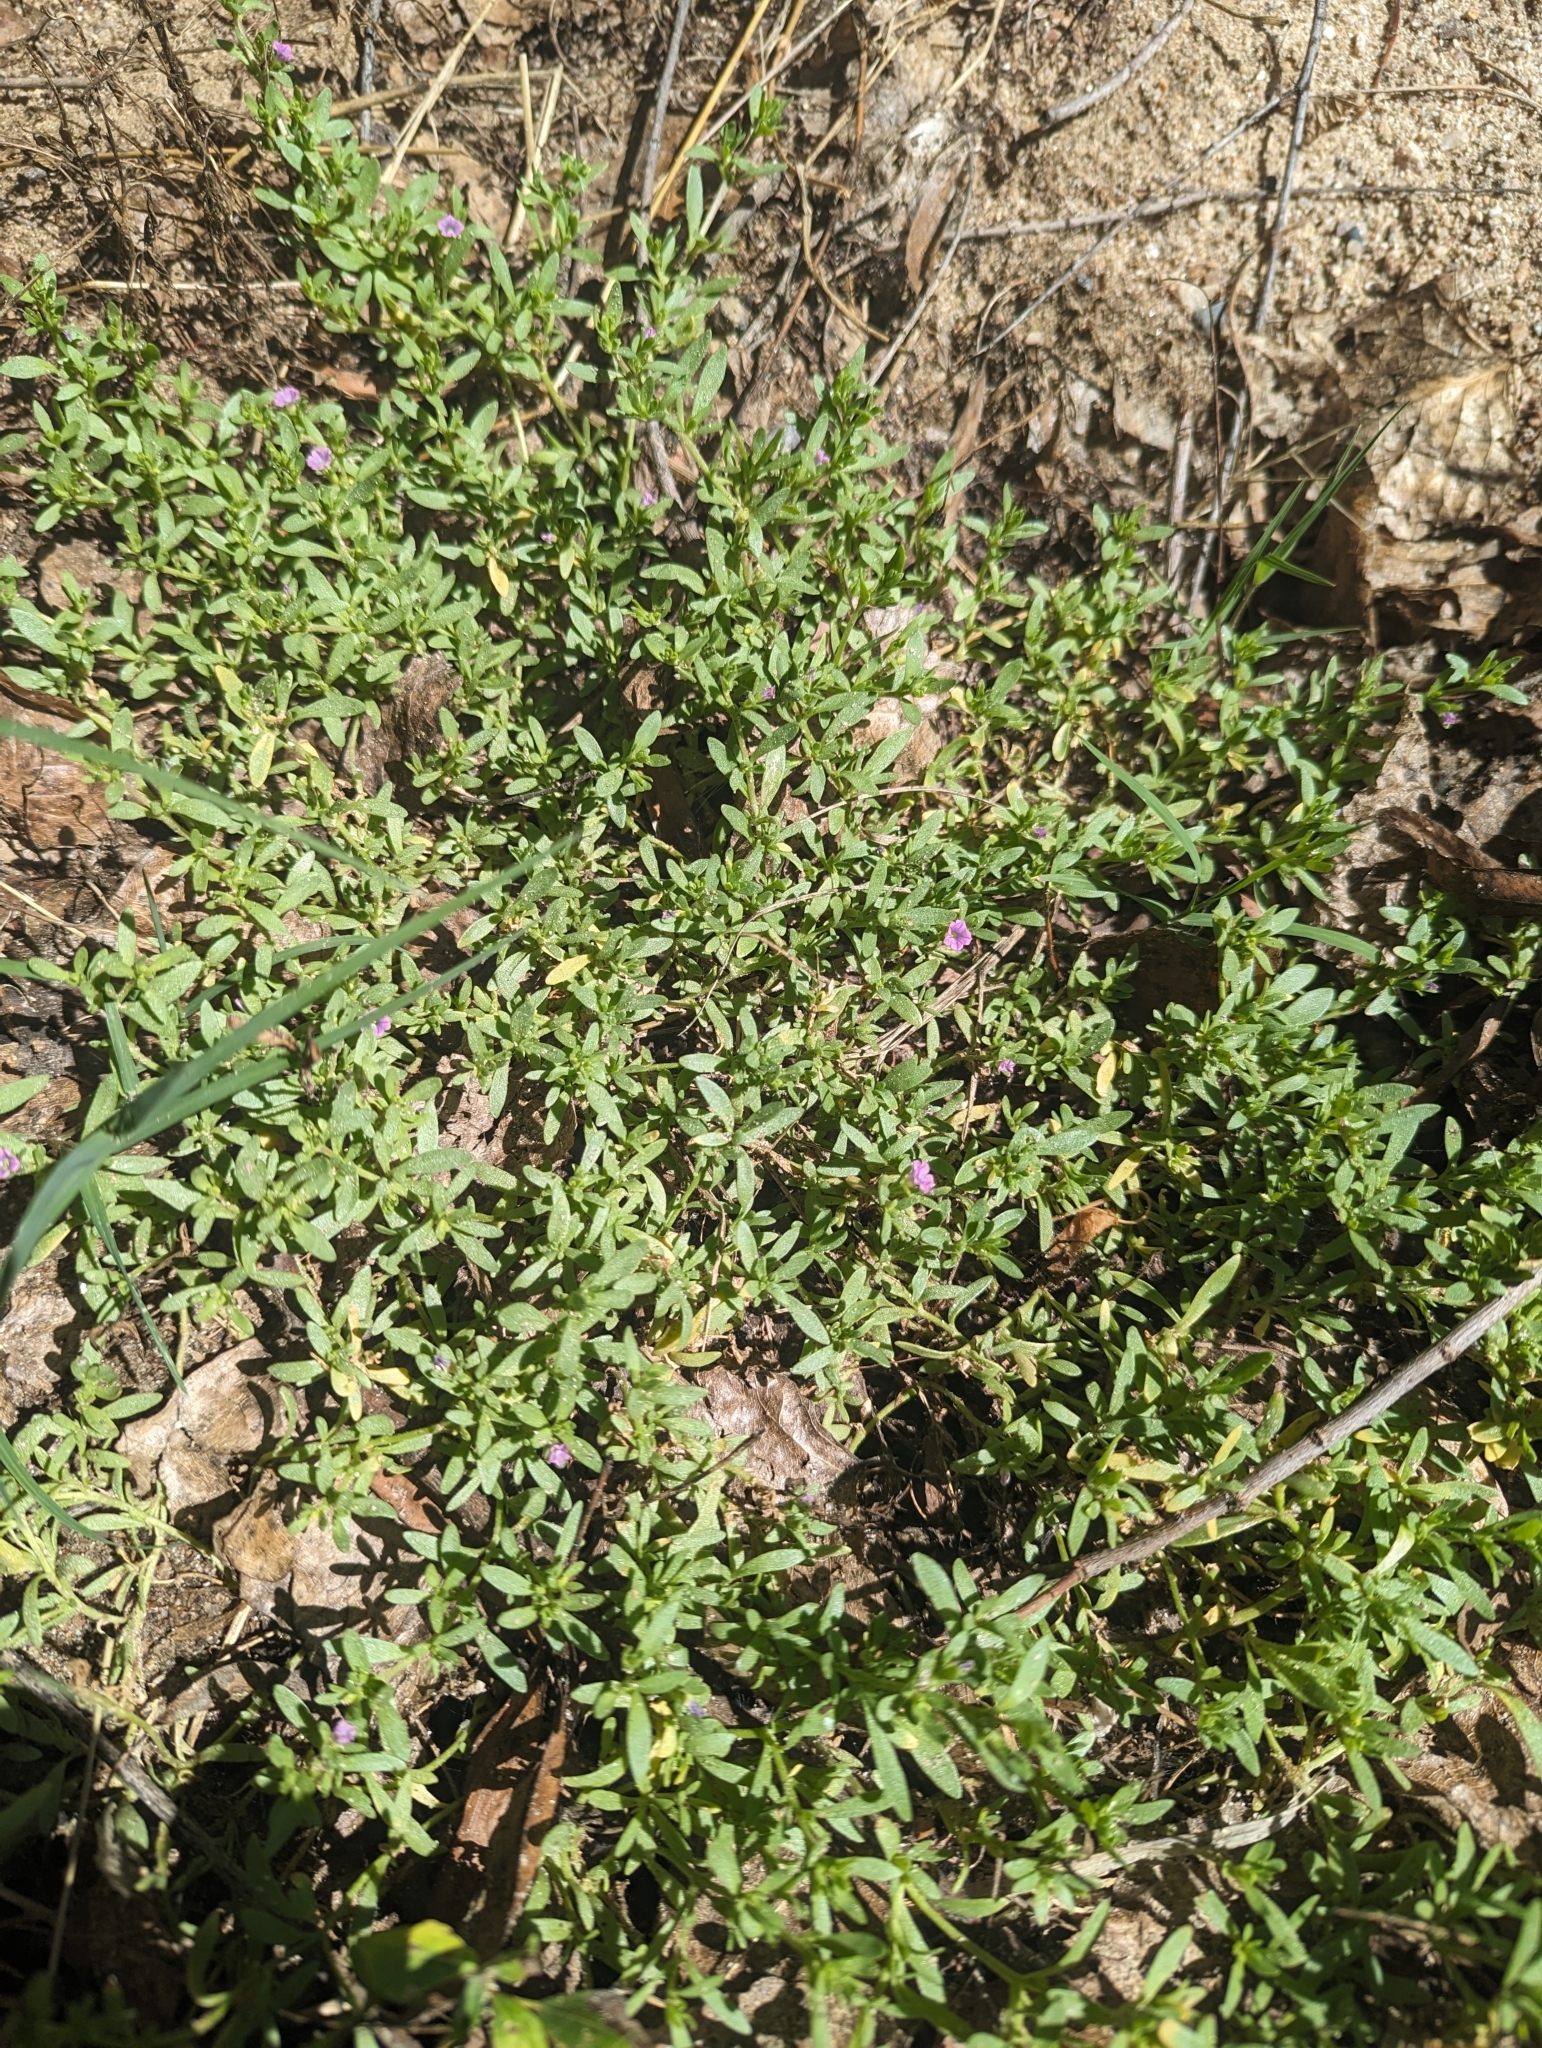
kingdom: Plantae
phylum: Tracheophyta
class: Magnoliopsida
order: Solanales
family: Solanaceae
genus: Calibrachoa
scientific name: Calibrachoa parviflora
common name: Seaside petunia
